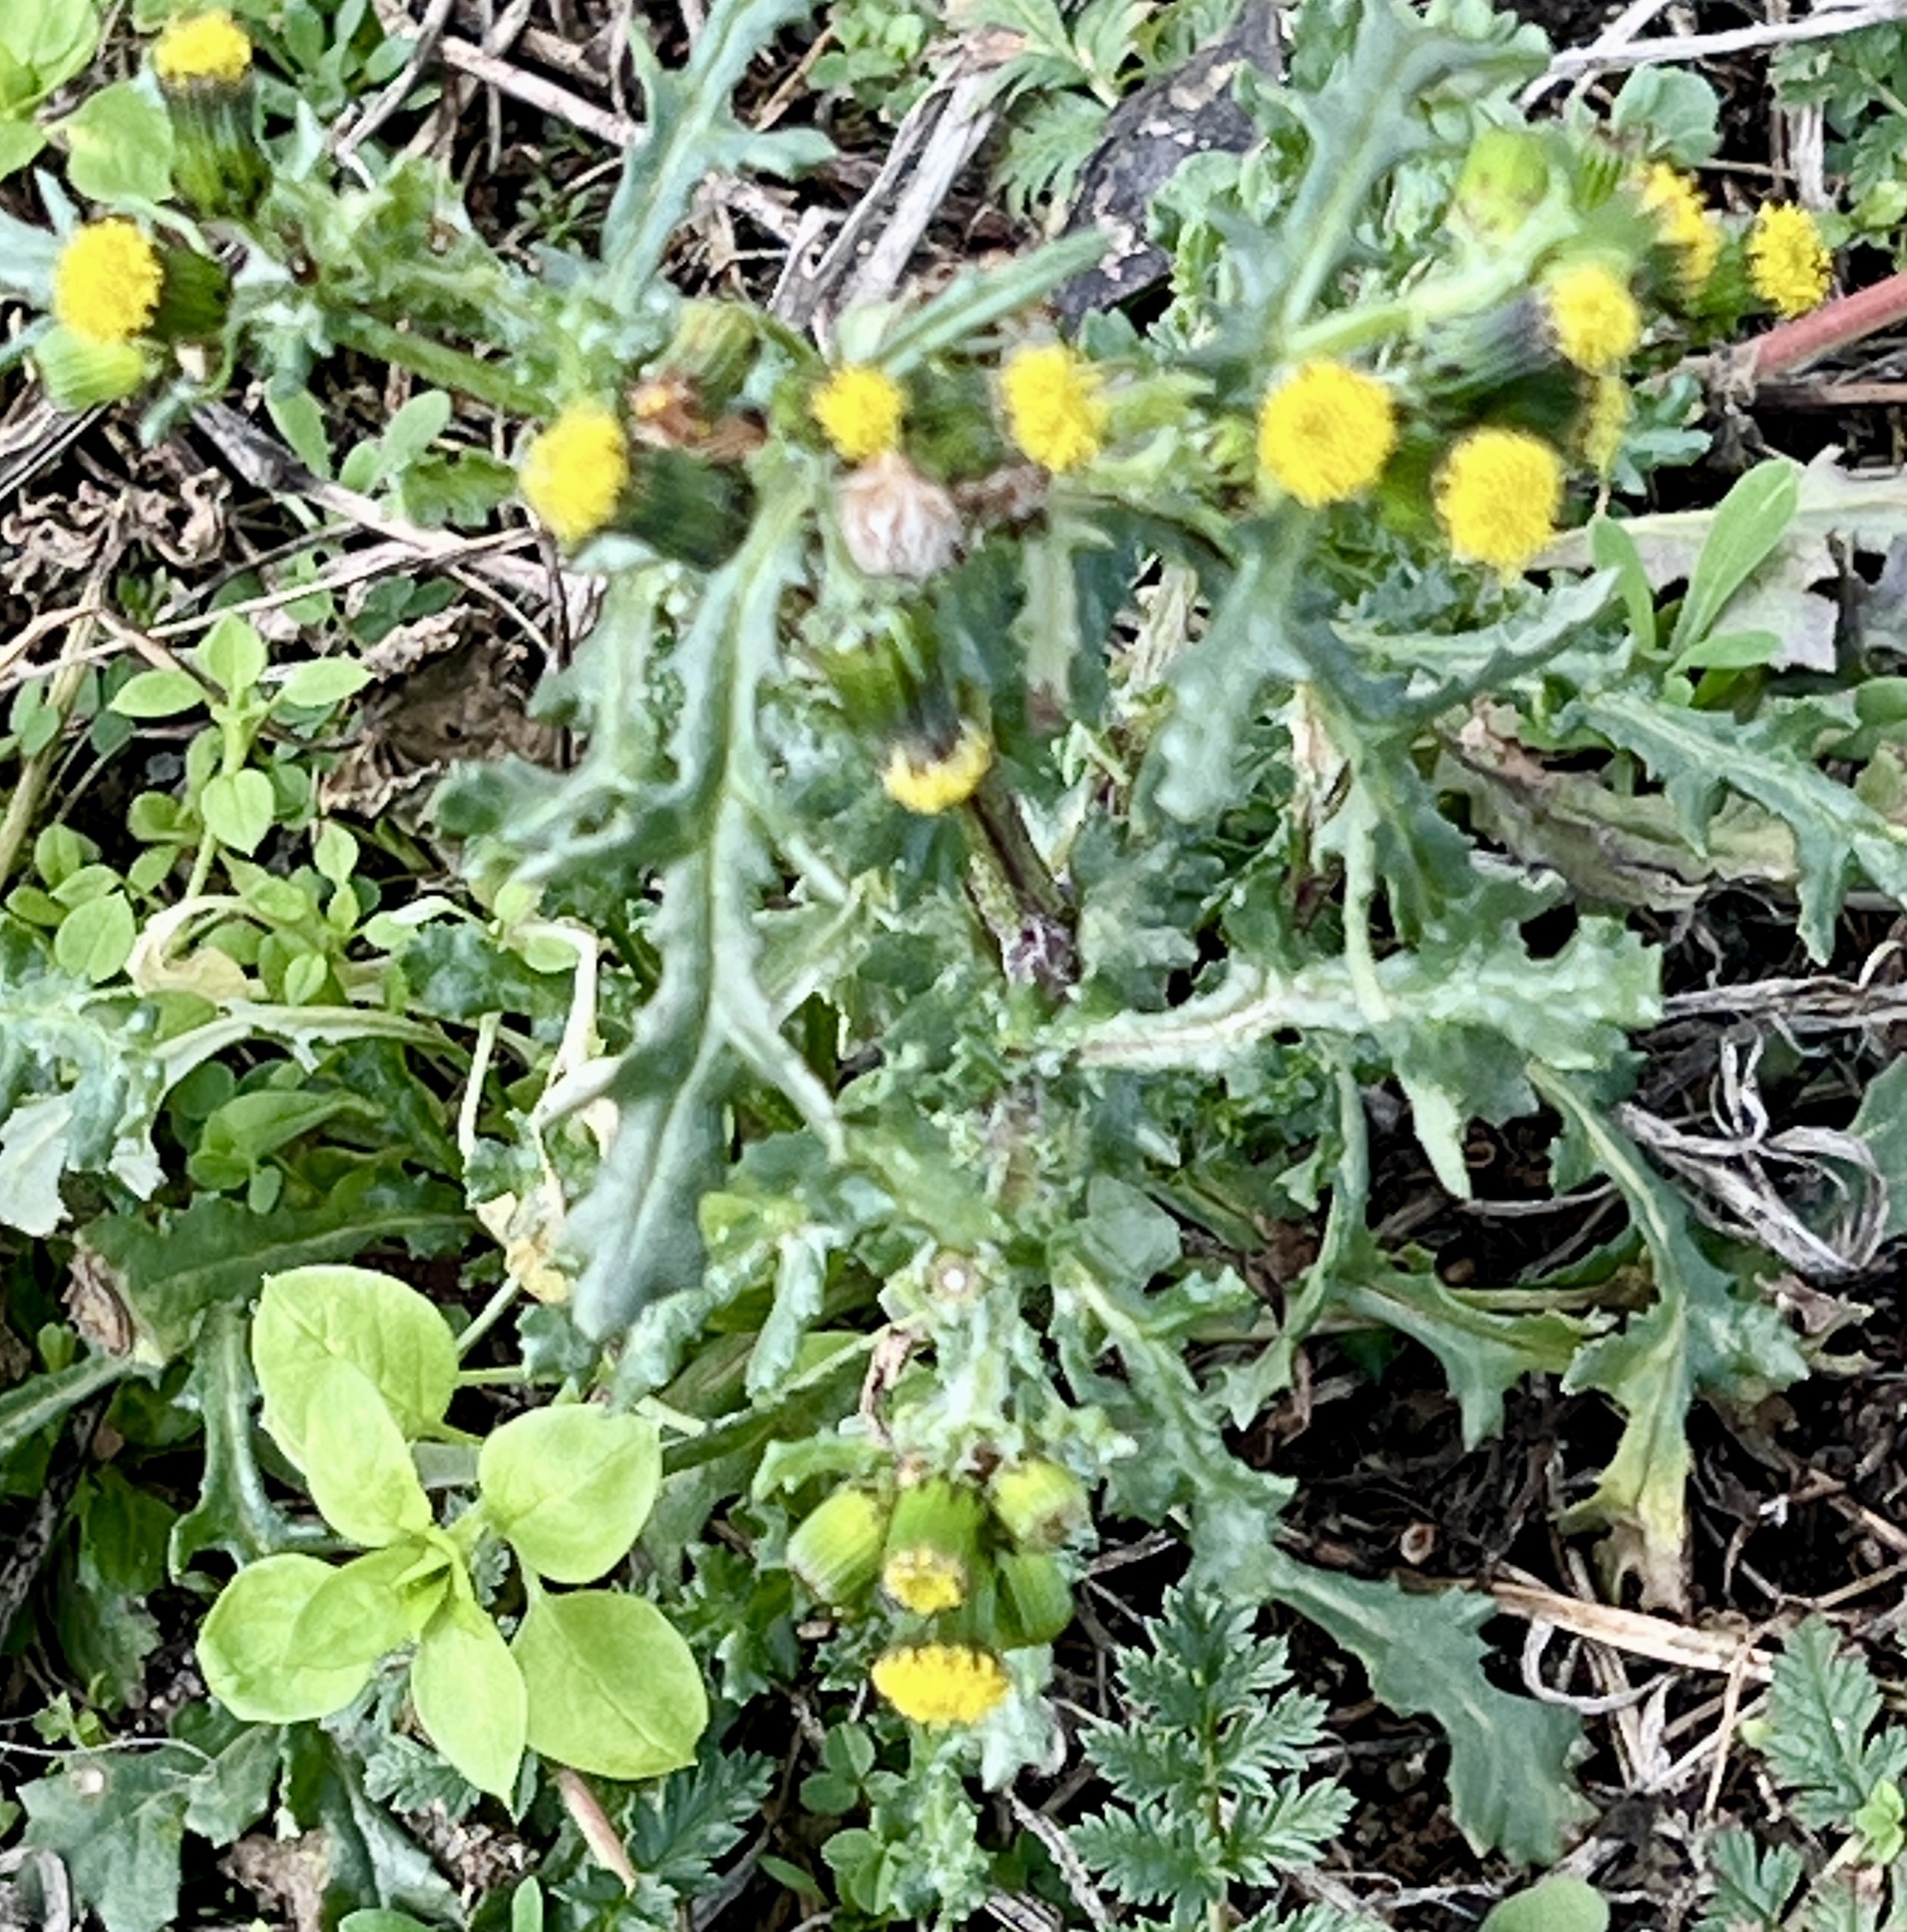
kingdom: Plantae
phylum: Tracheophyta
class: Magnoliopsida
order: Asterales
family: Asteraceae
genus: Senecio
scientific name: Senecio vulgaris
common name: Old-man-in-the-spring
